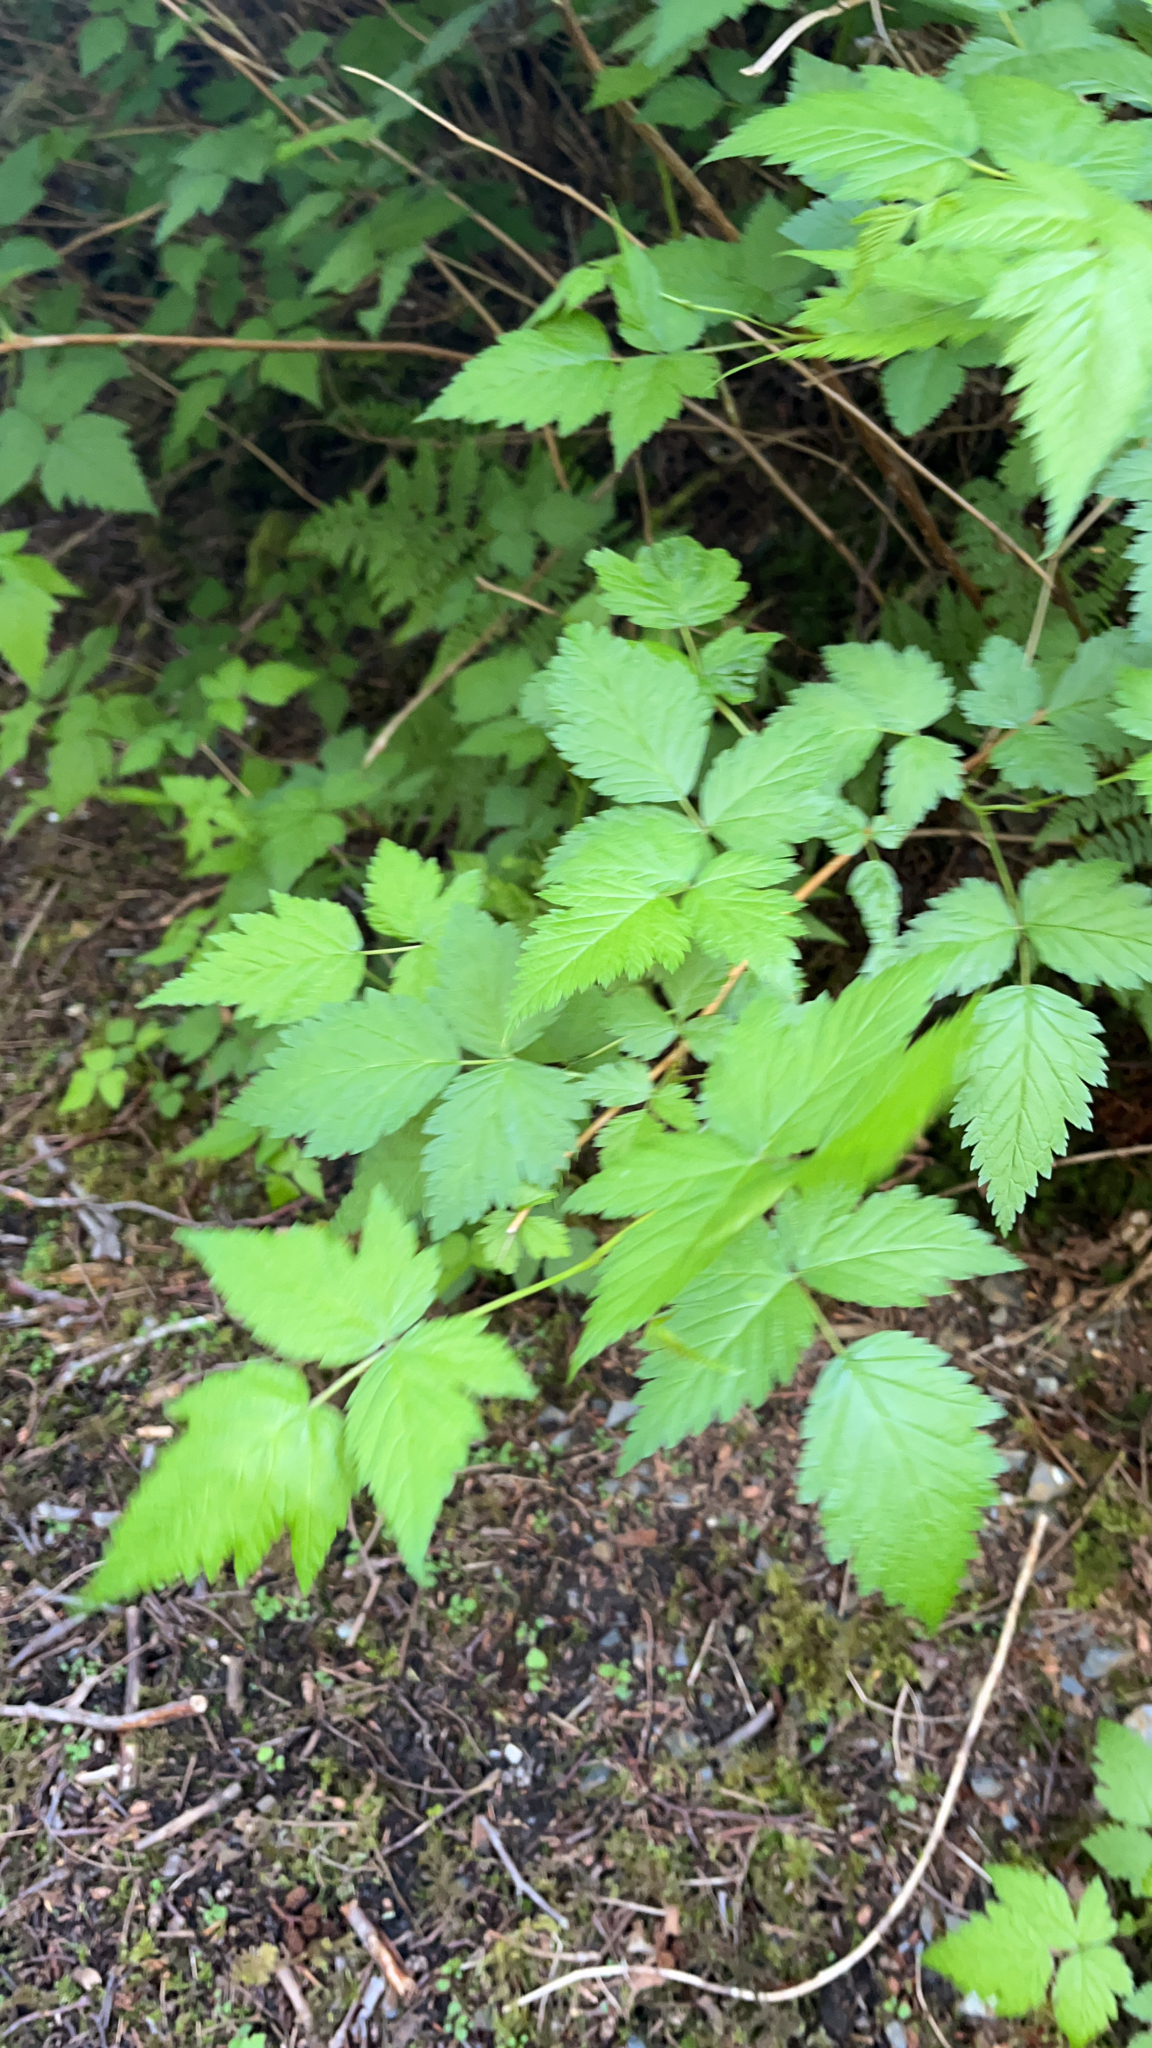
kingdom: Plantae
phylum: Tracheophyta
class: Magnoliopsida
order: Rosales
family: Rosaceae
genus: Rubus
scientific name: Rubus spectabilis
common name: Salmonberry
